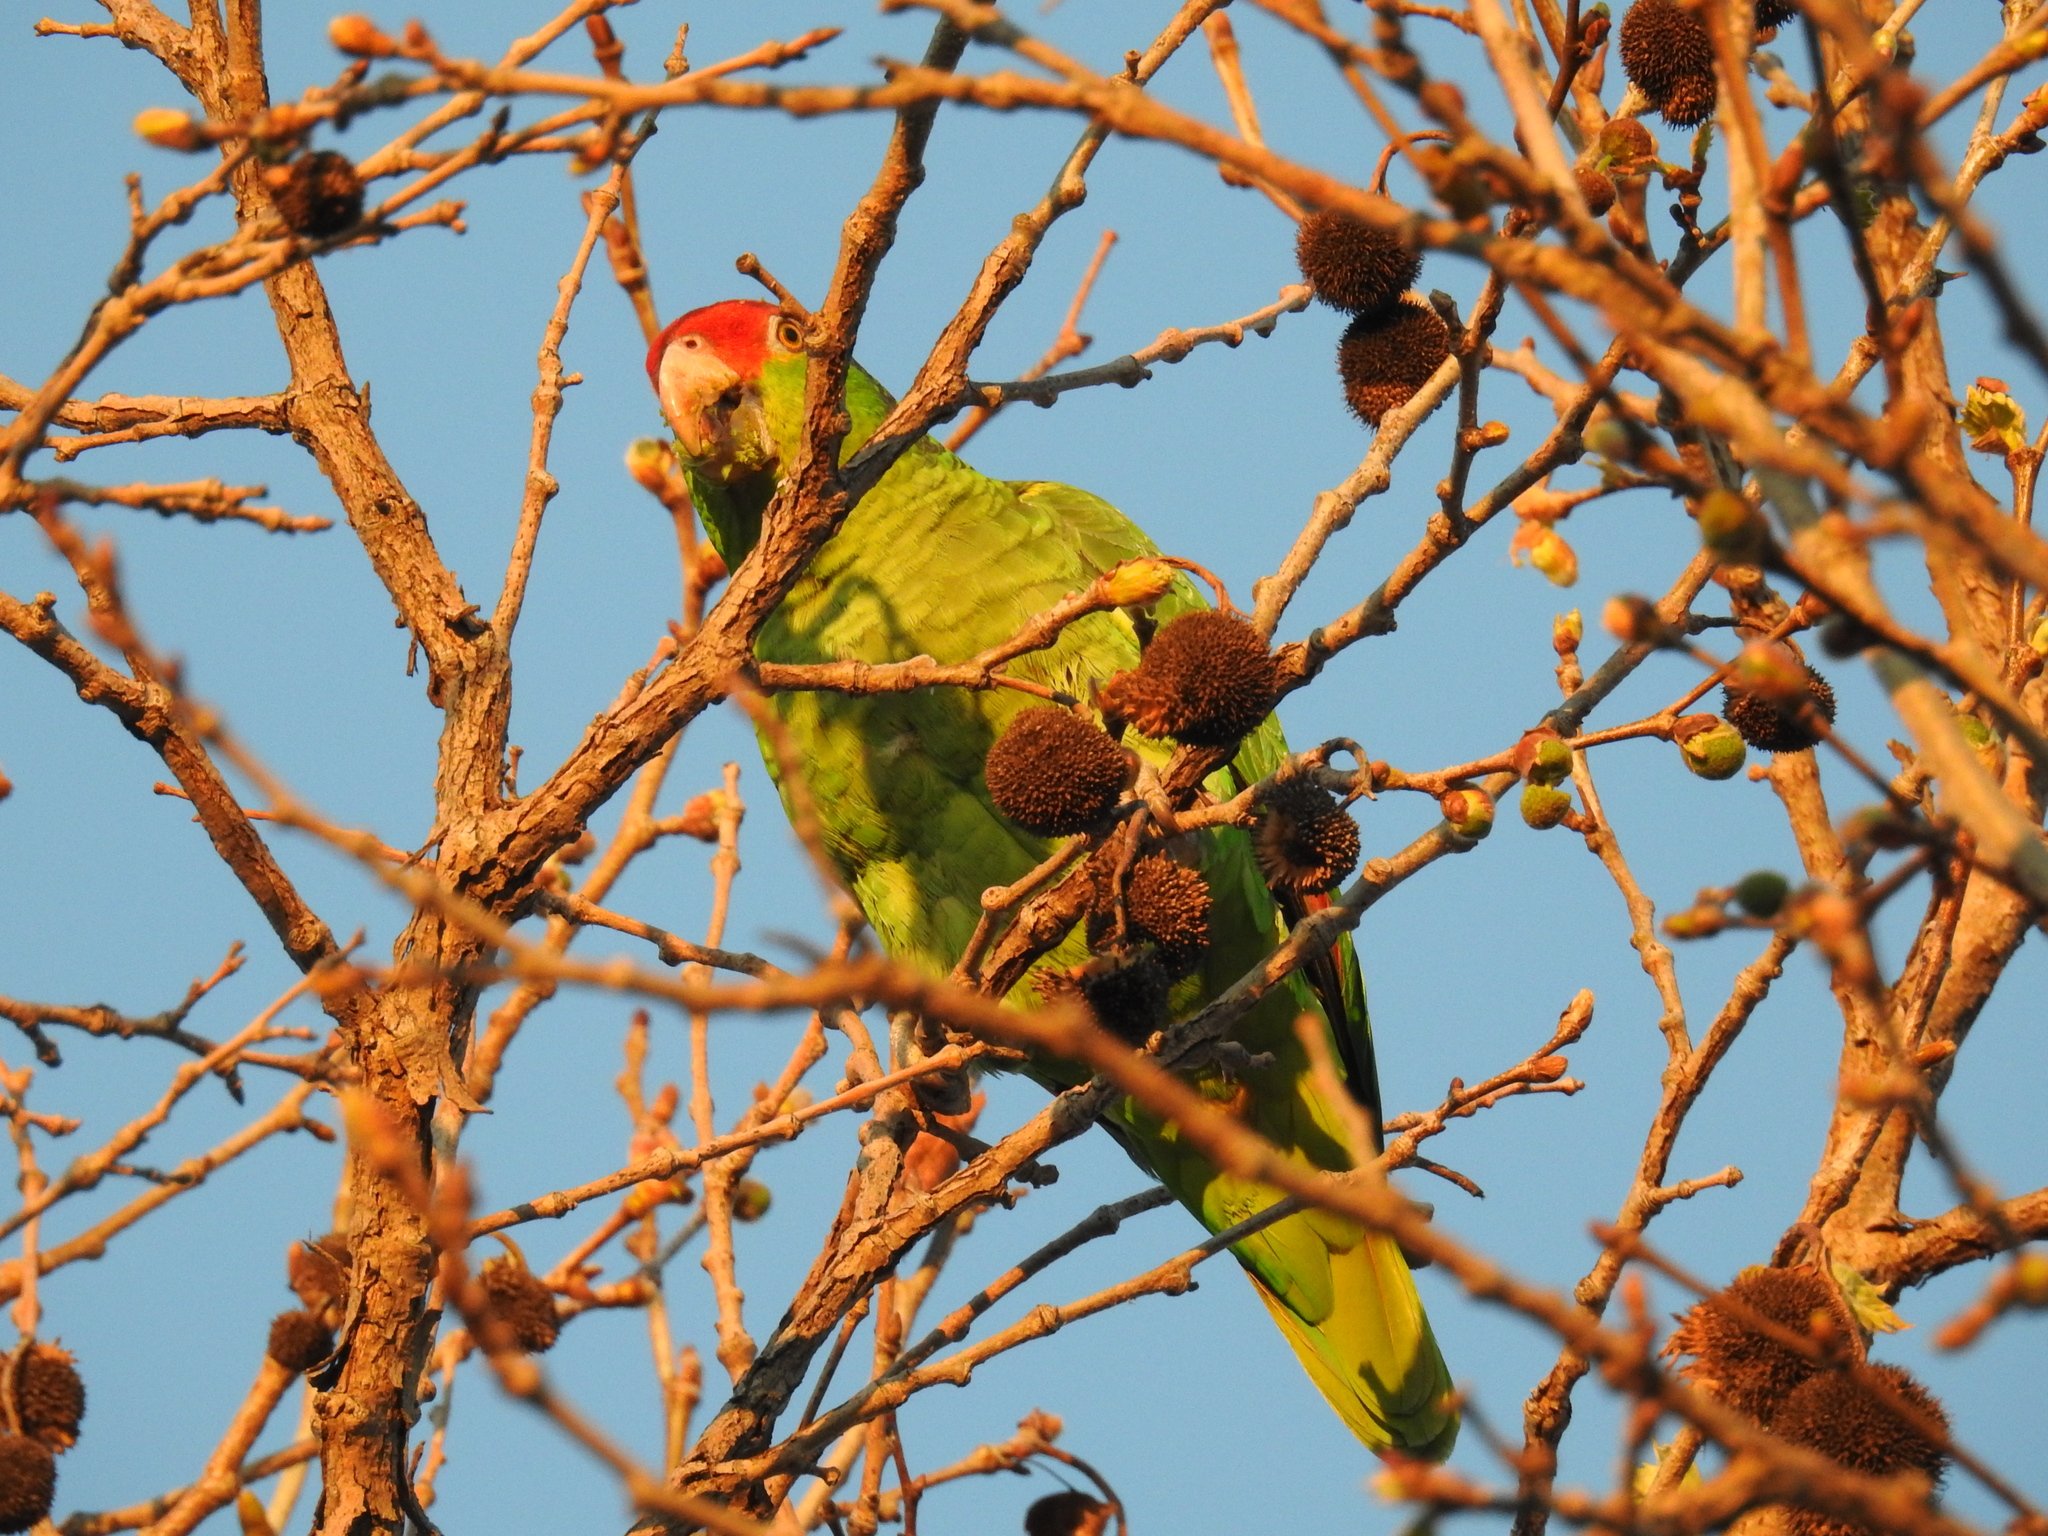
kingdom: Animalia
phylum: Chordata
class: Aves
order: Psittaciformes
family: Psittacidae
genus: Amazona
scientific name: Amazona viridigenalis
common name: Red-crowned amazon
